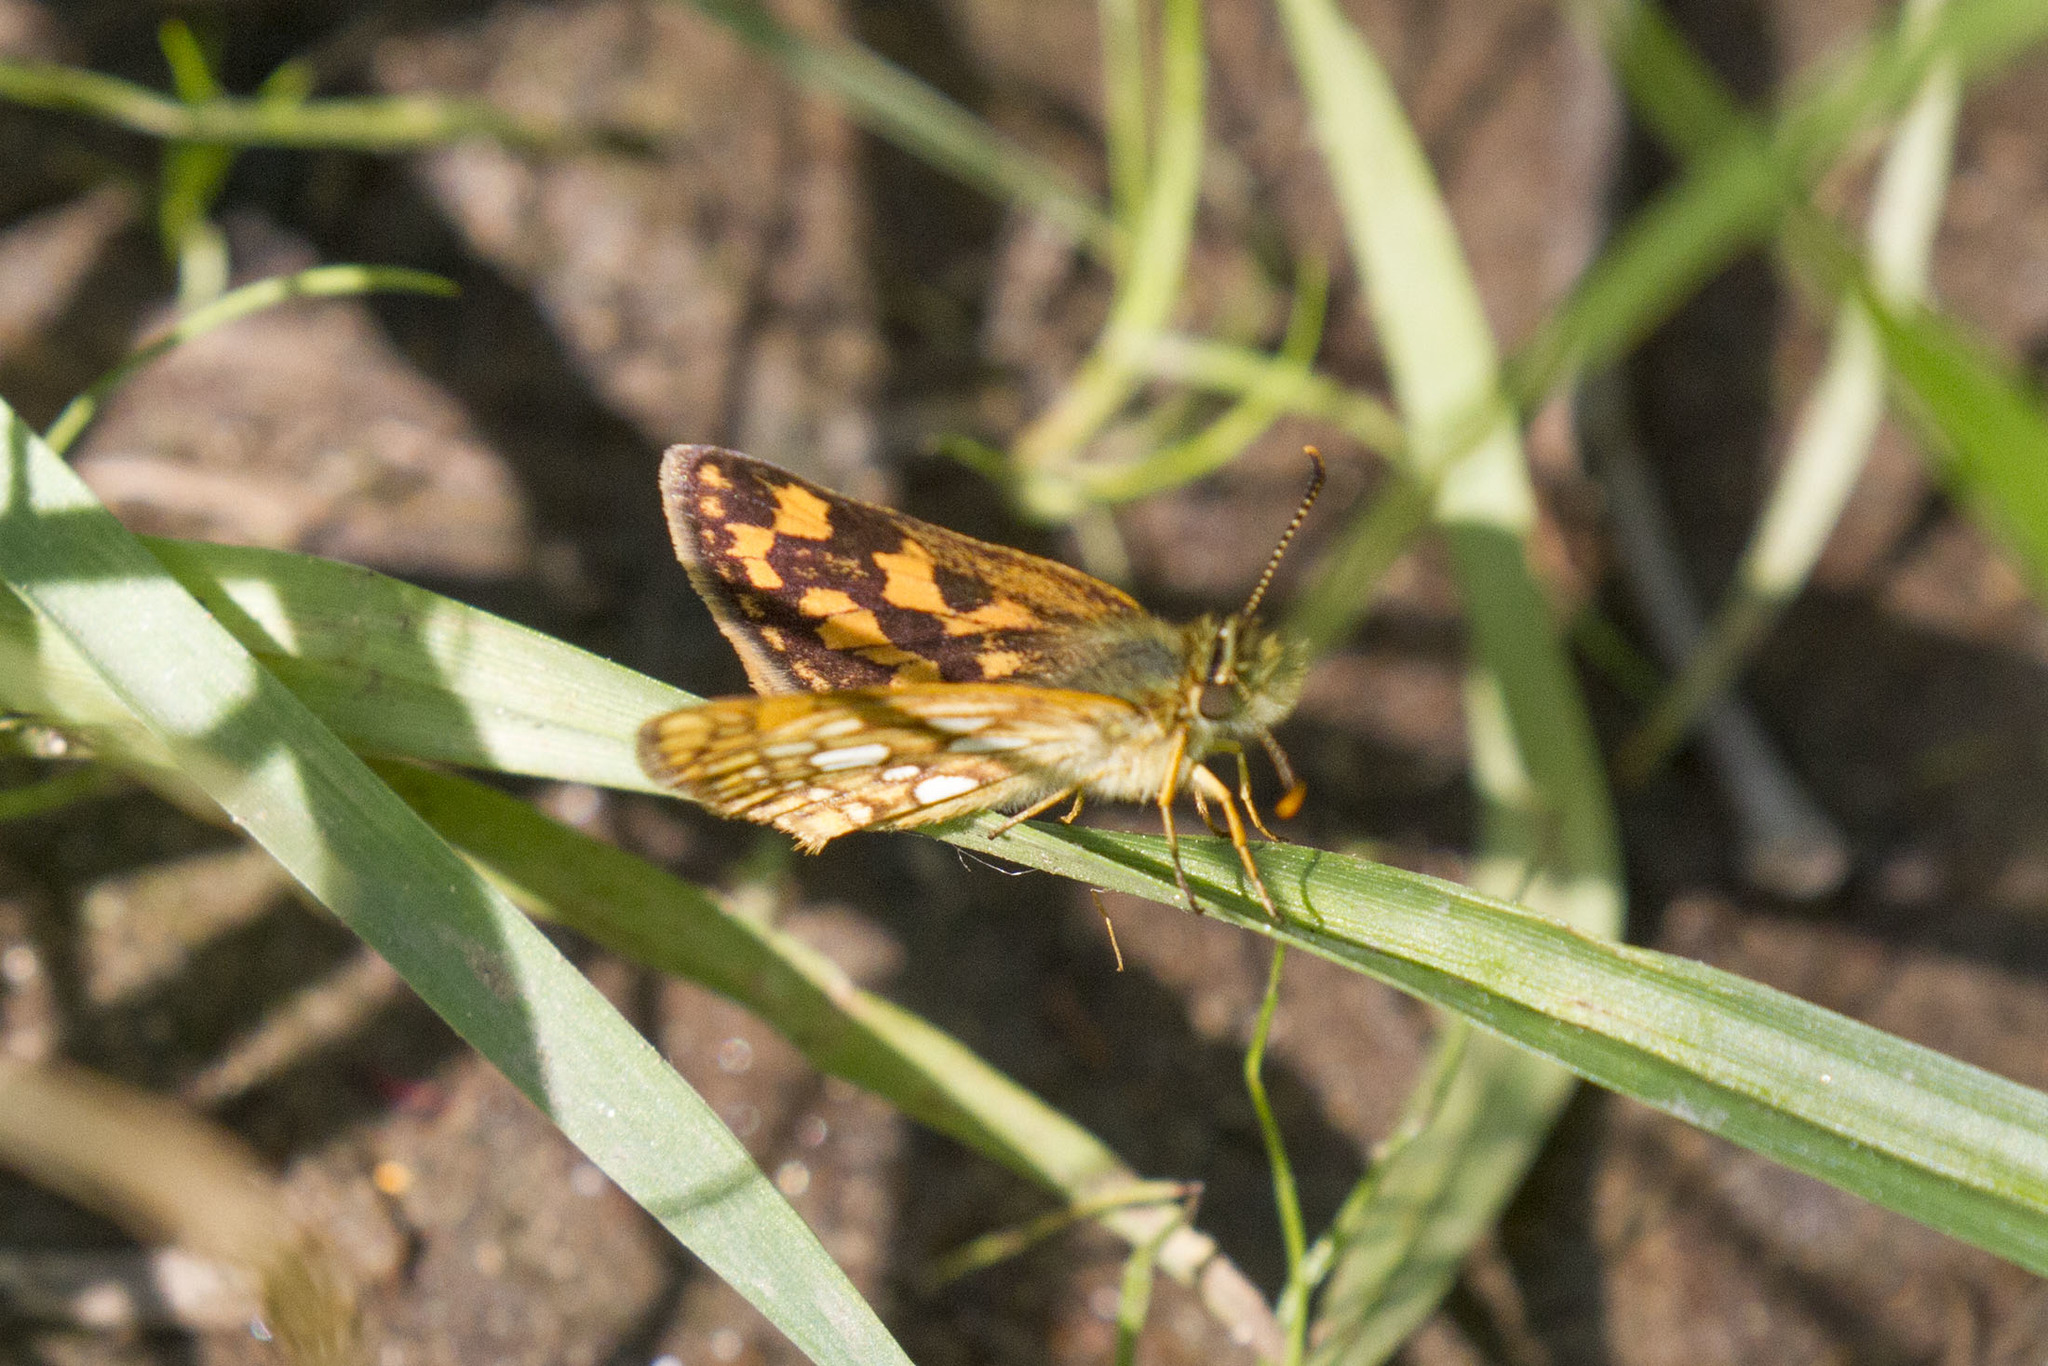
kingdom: Animalia
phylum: Arthropoda
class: Insecta
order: Lepidoptera
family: Hesperiidae
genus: Carterocephalus
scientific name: Carterocephalus mandan
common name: Arctic skipperling
